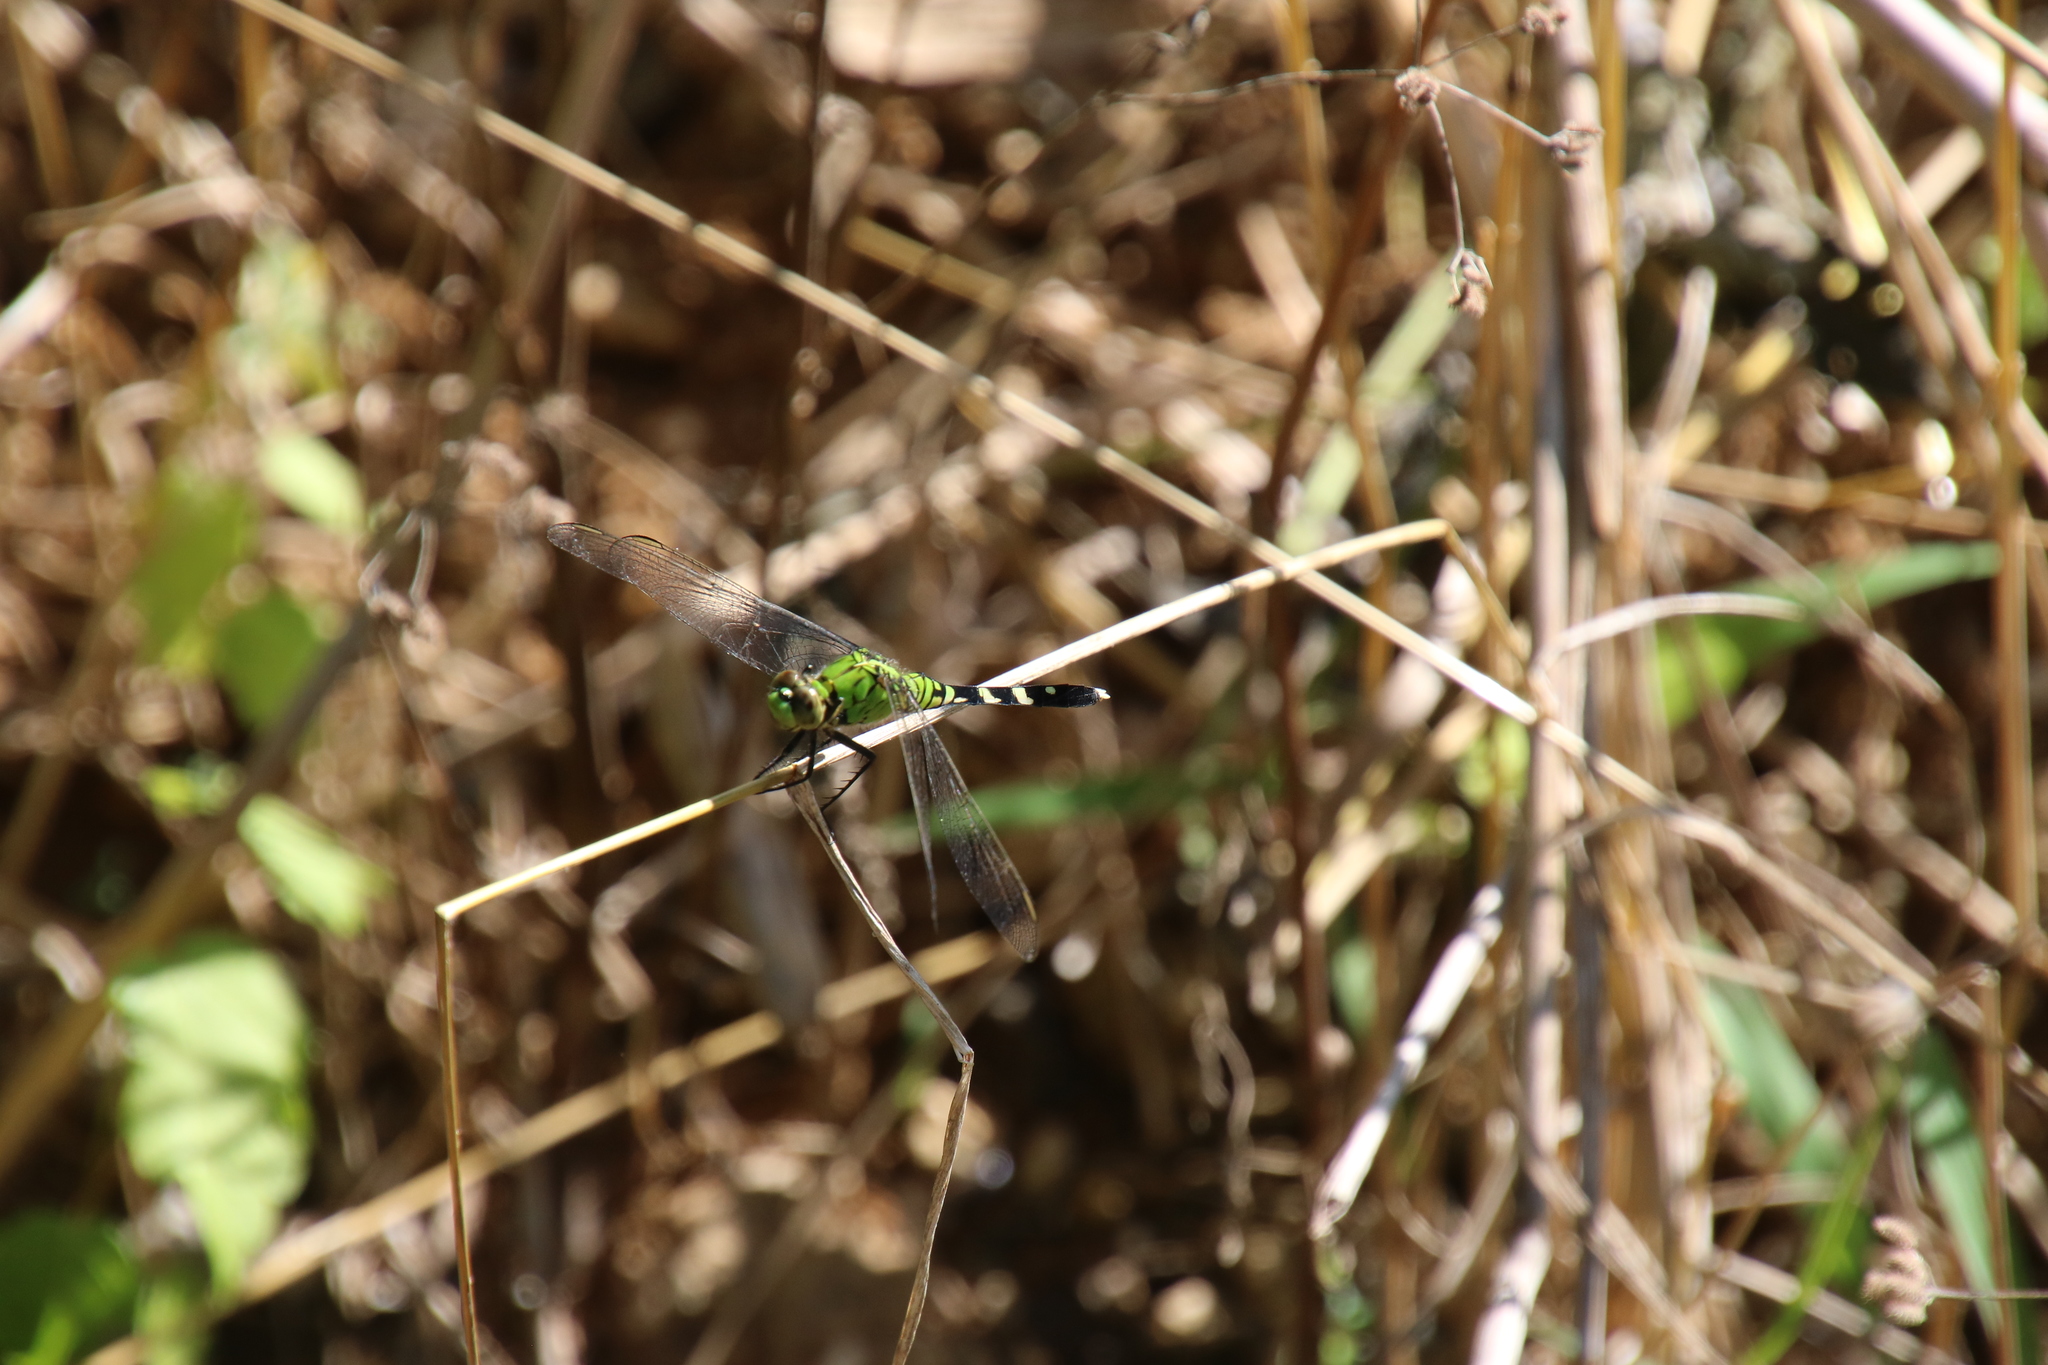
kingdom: Animalia
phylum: Arthropoda
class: Insecta
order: Odonata
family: Libellulidae
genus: Erythemis
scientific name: Erythemis simplicicollis
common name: Eastern pondhawk
